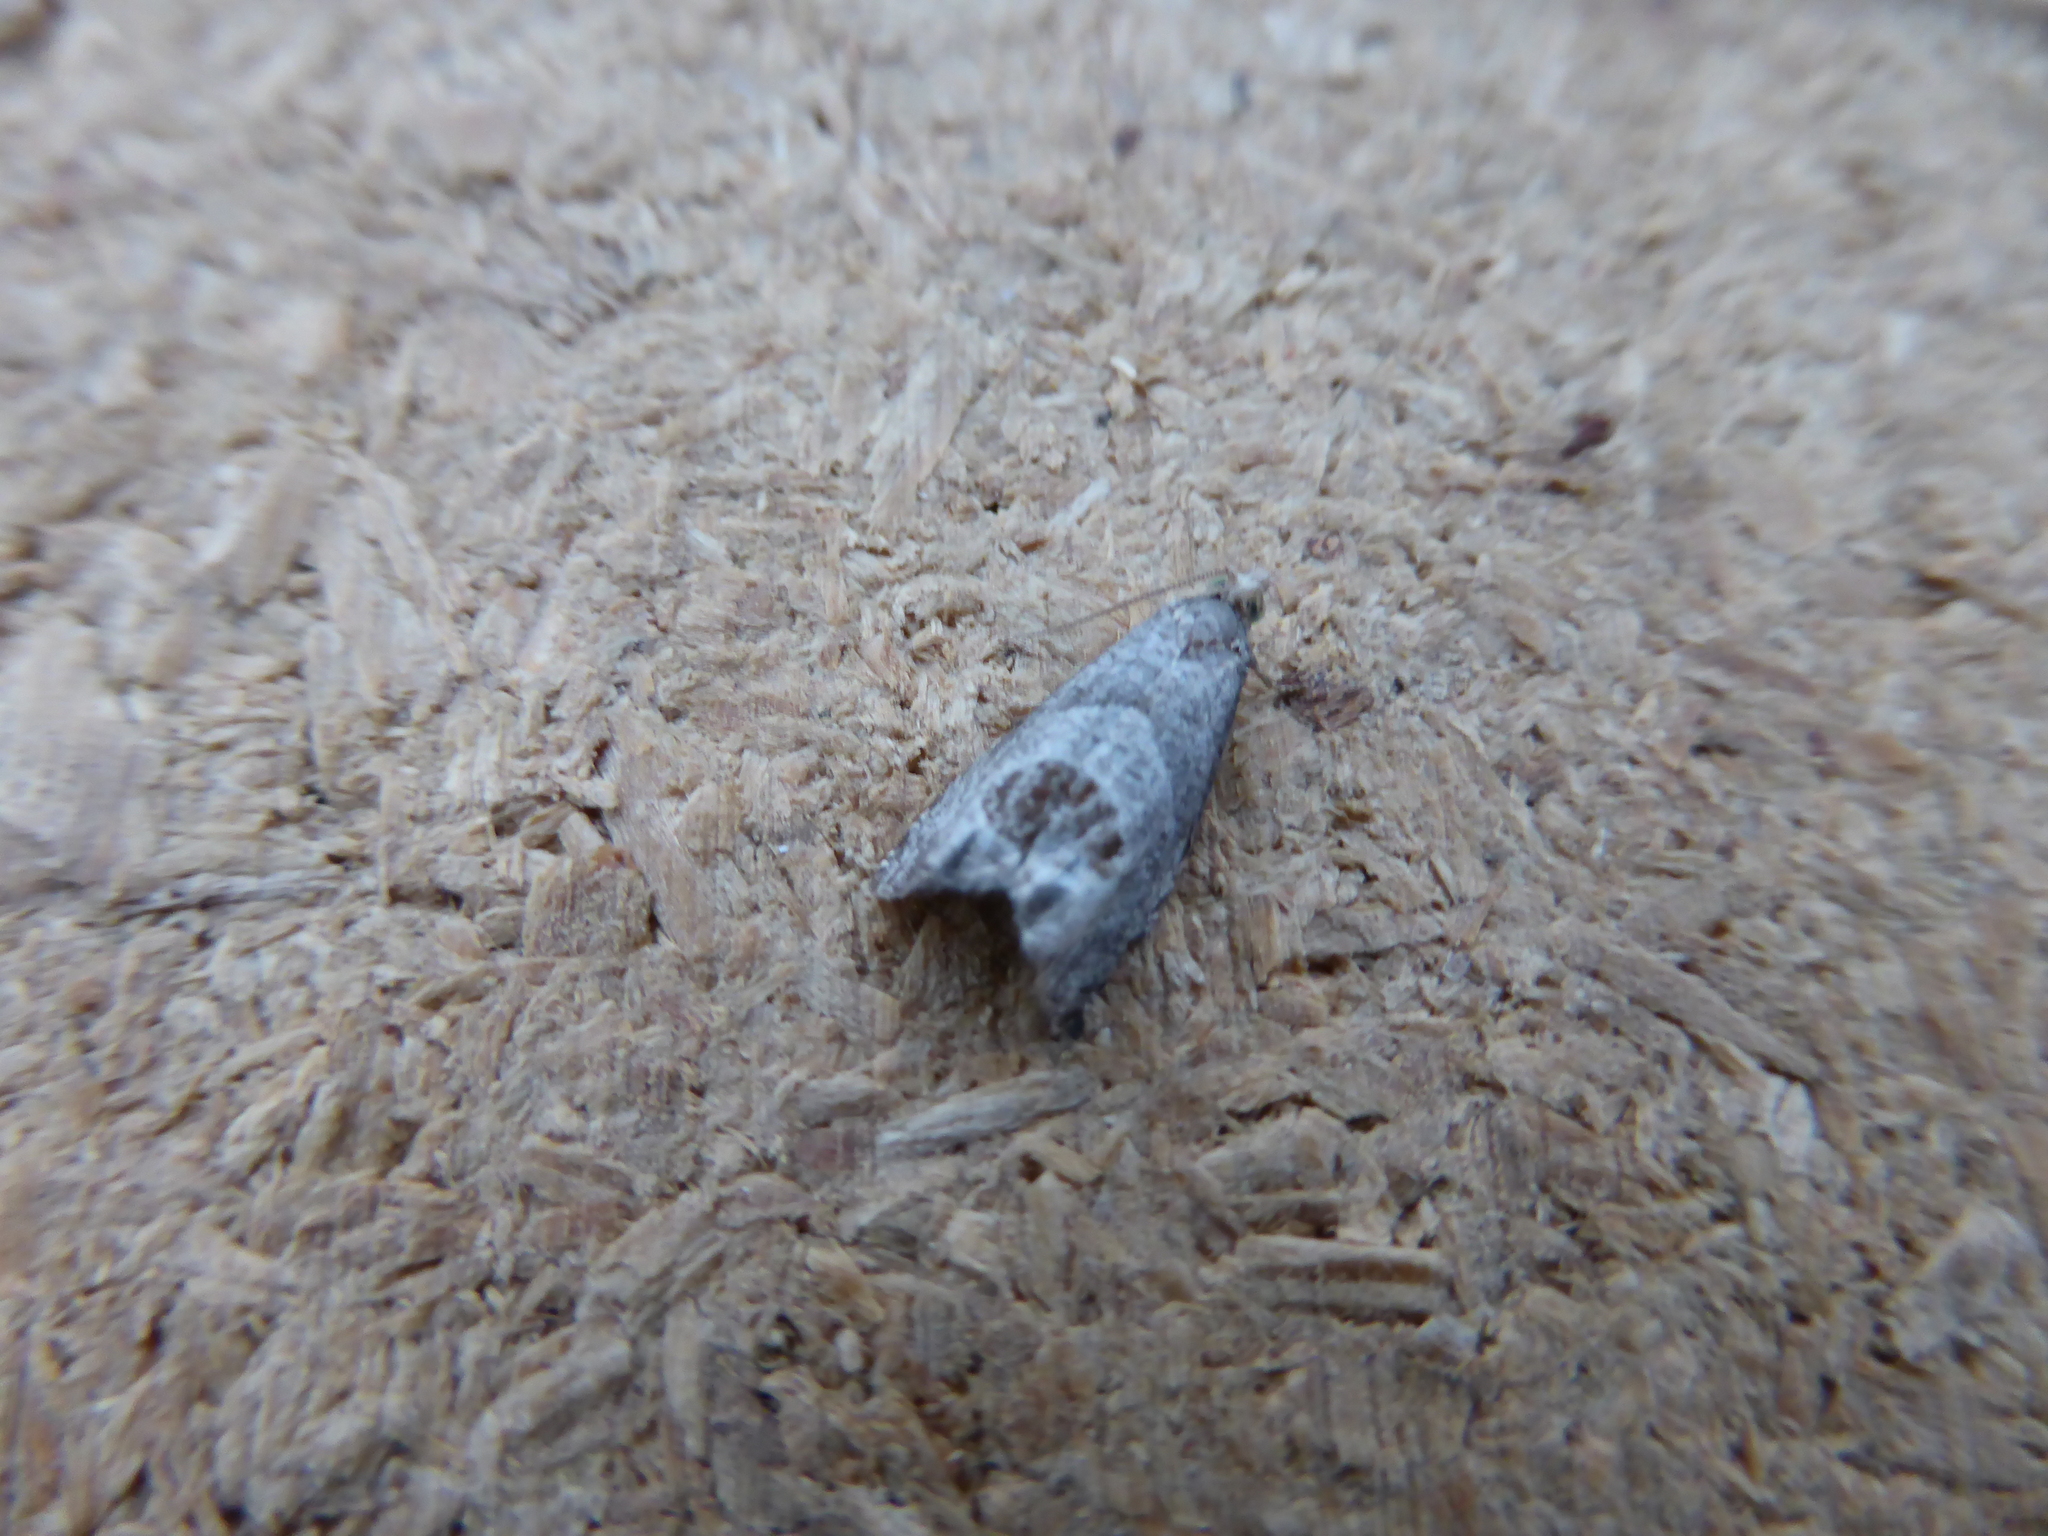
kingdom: Animalia
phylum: Arthropoda
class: Insecta
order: Lepidoptera
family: Tortricidae
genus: Notocelia
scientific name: Notocelia uddmanniana
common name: Bramble shoot moth
